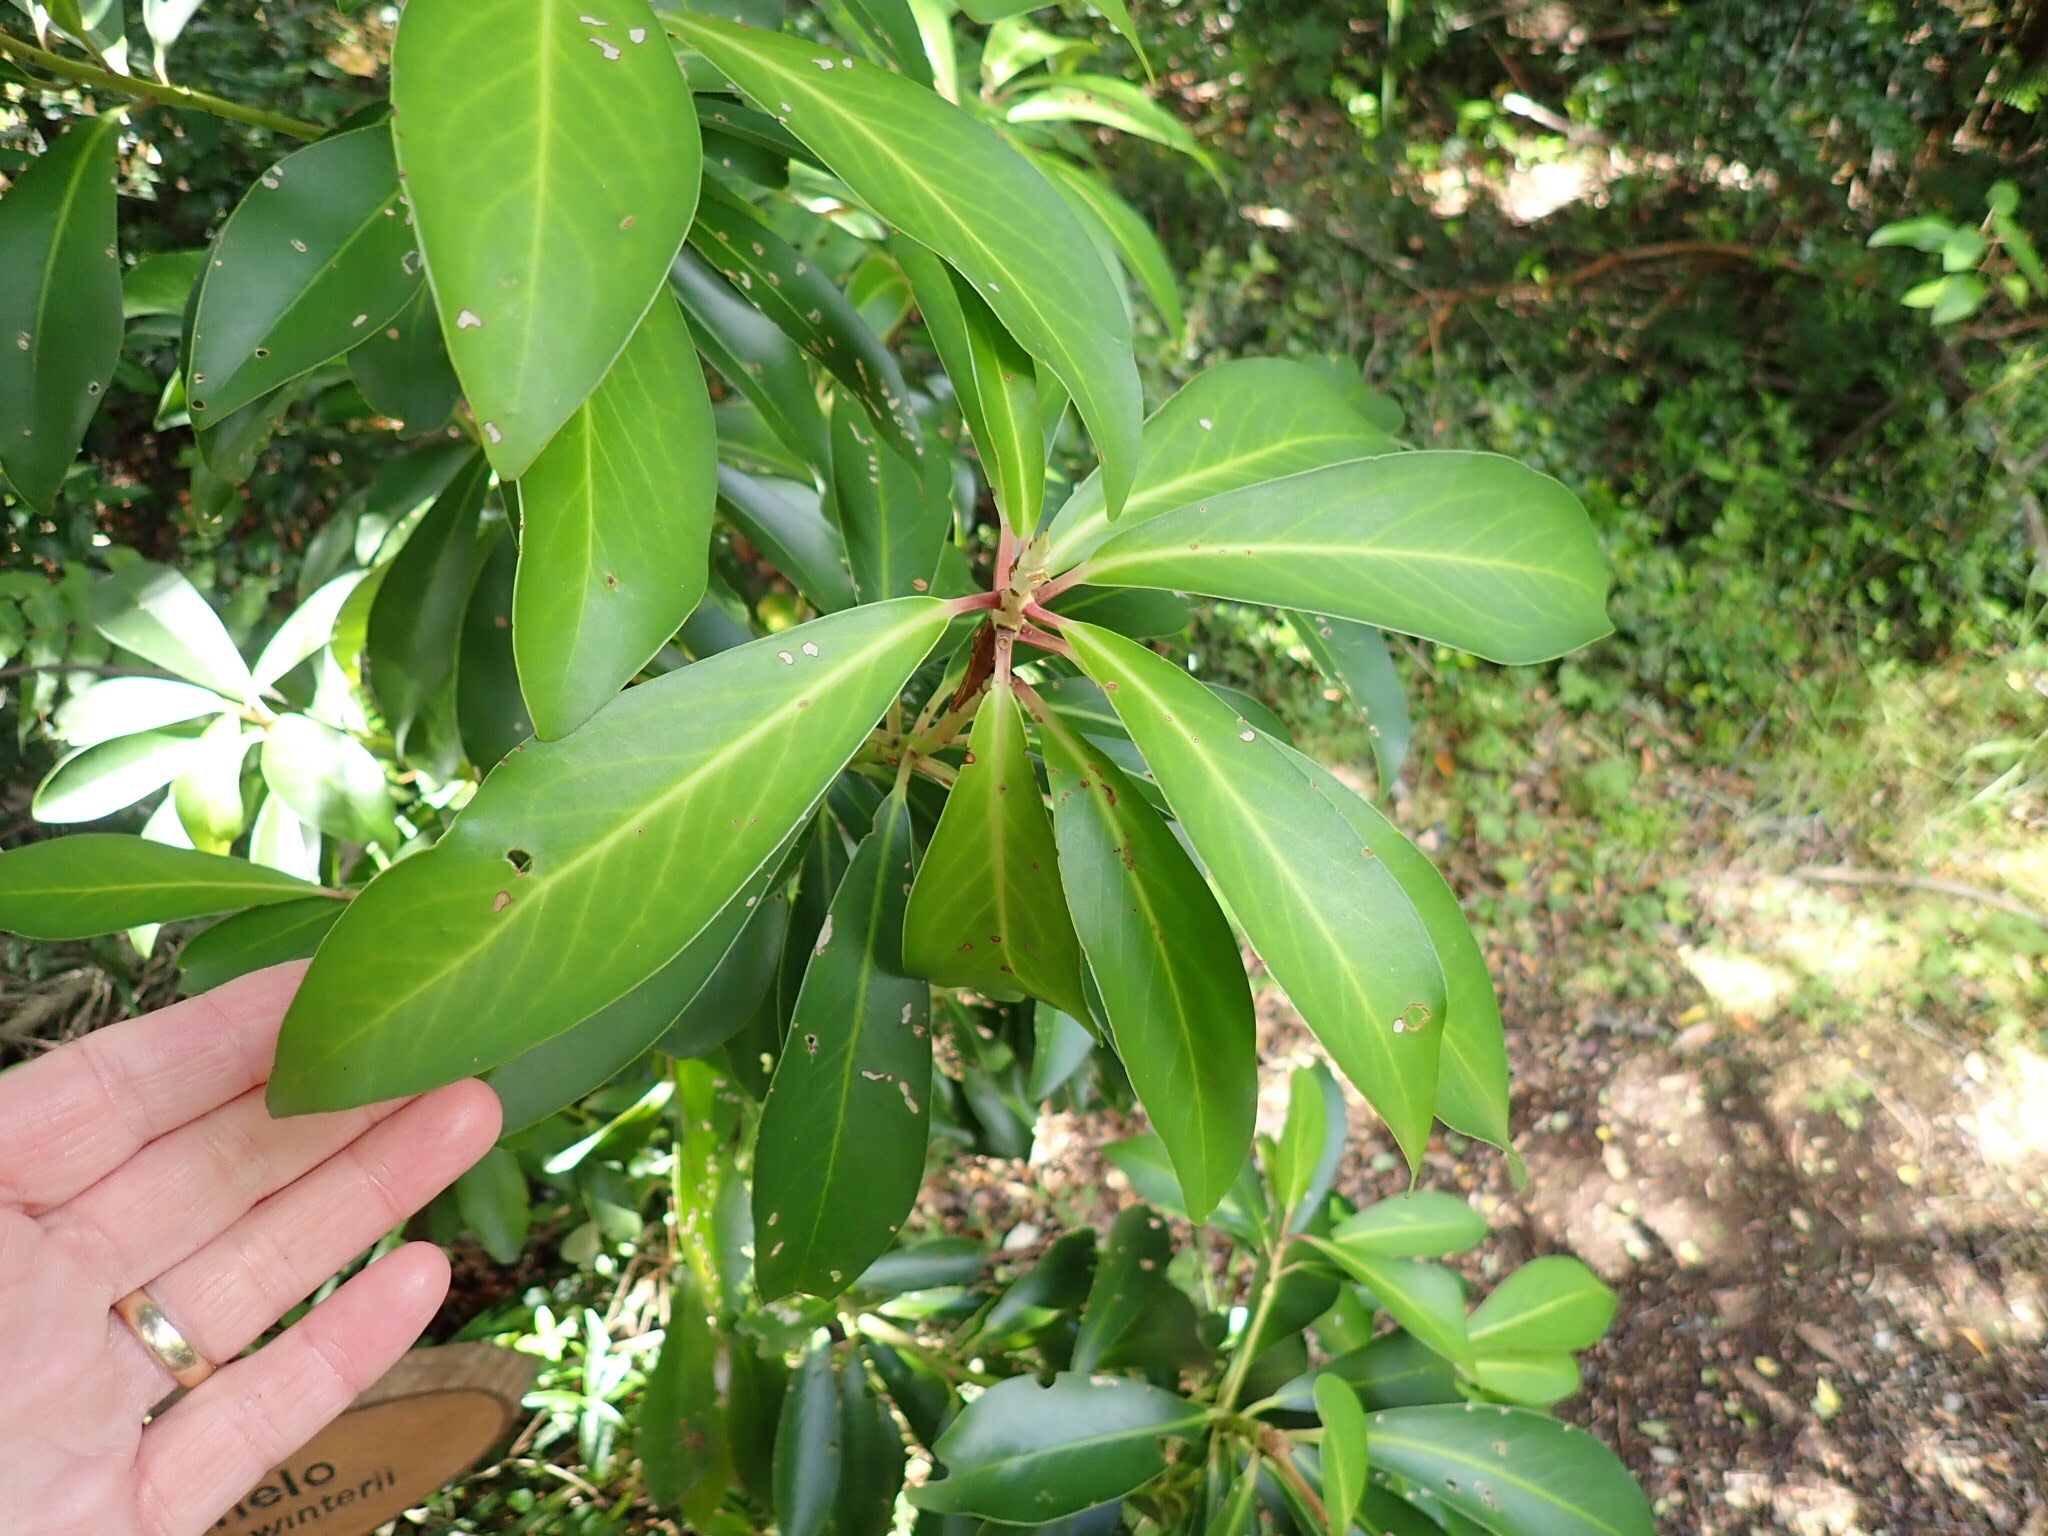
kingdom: Plantae
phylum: Tracheophyta
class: Magnoliopsida
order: Canellales
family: Winteraceae
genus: Drimys
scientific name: Drimys winteri
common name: Winter's-bark
